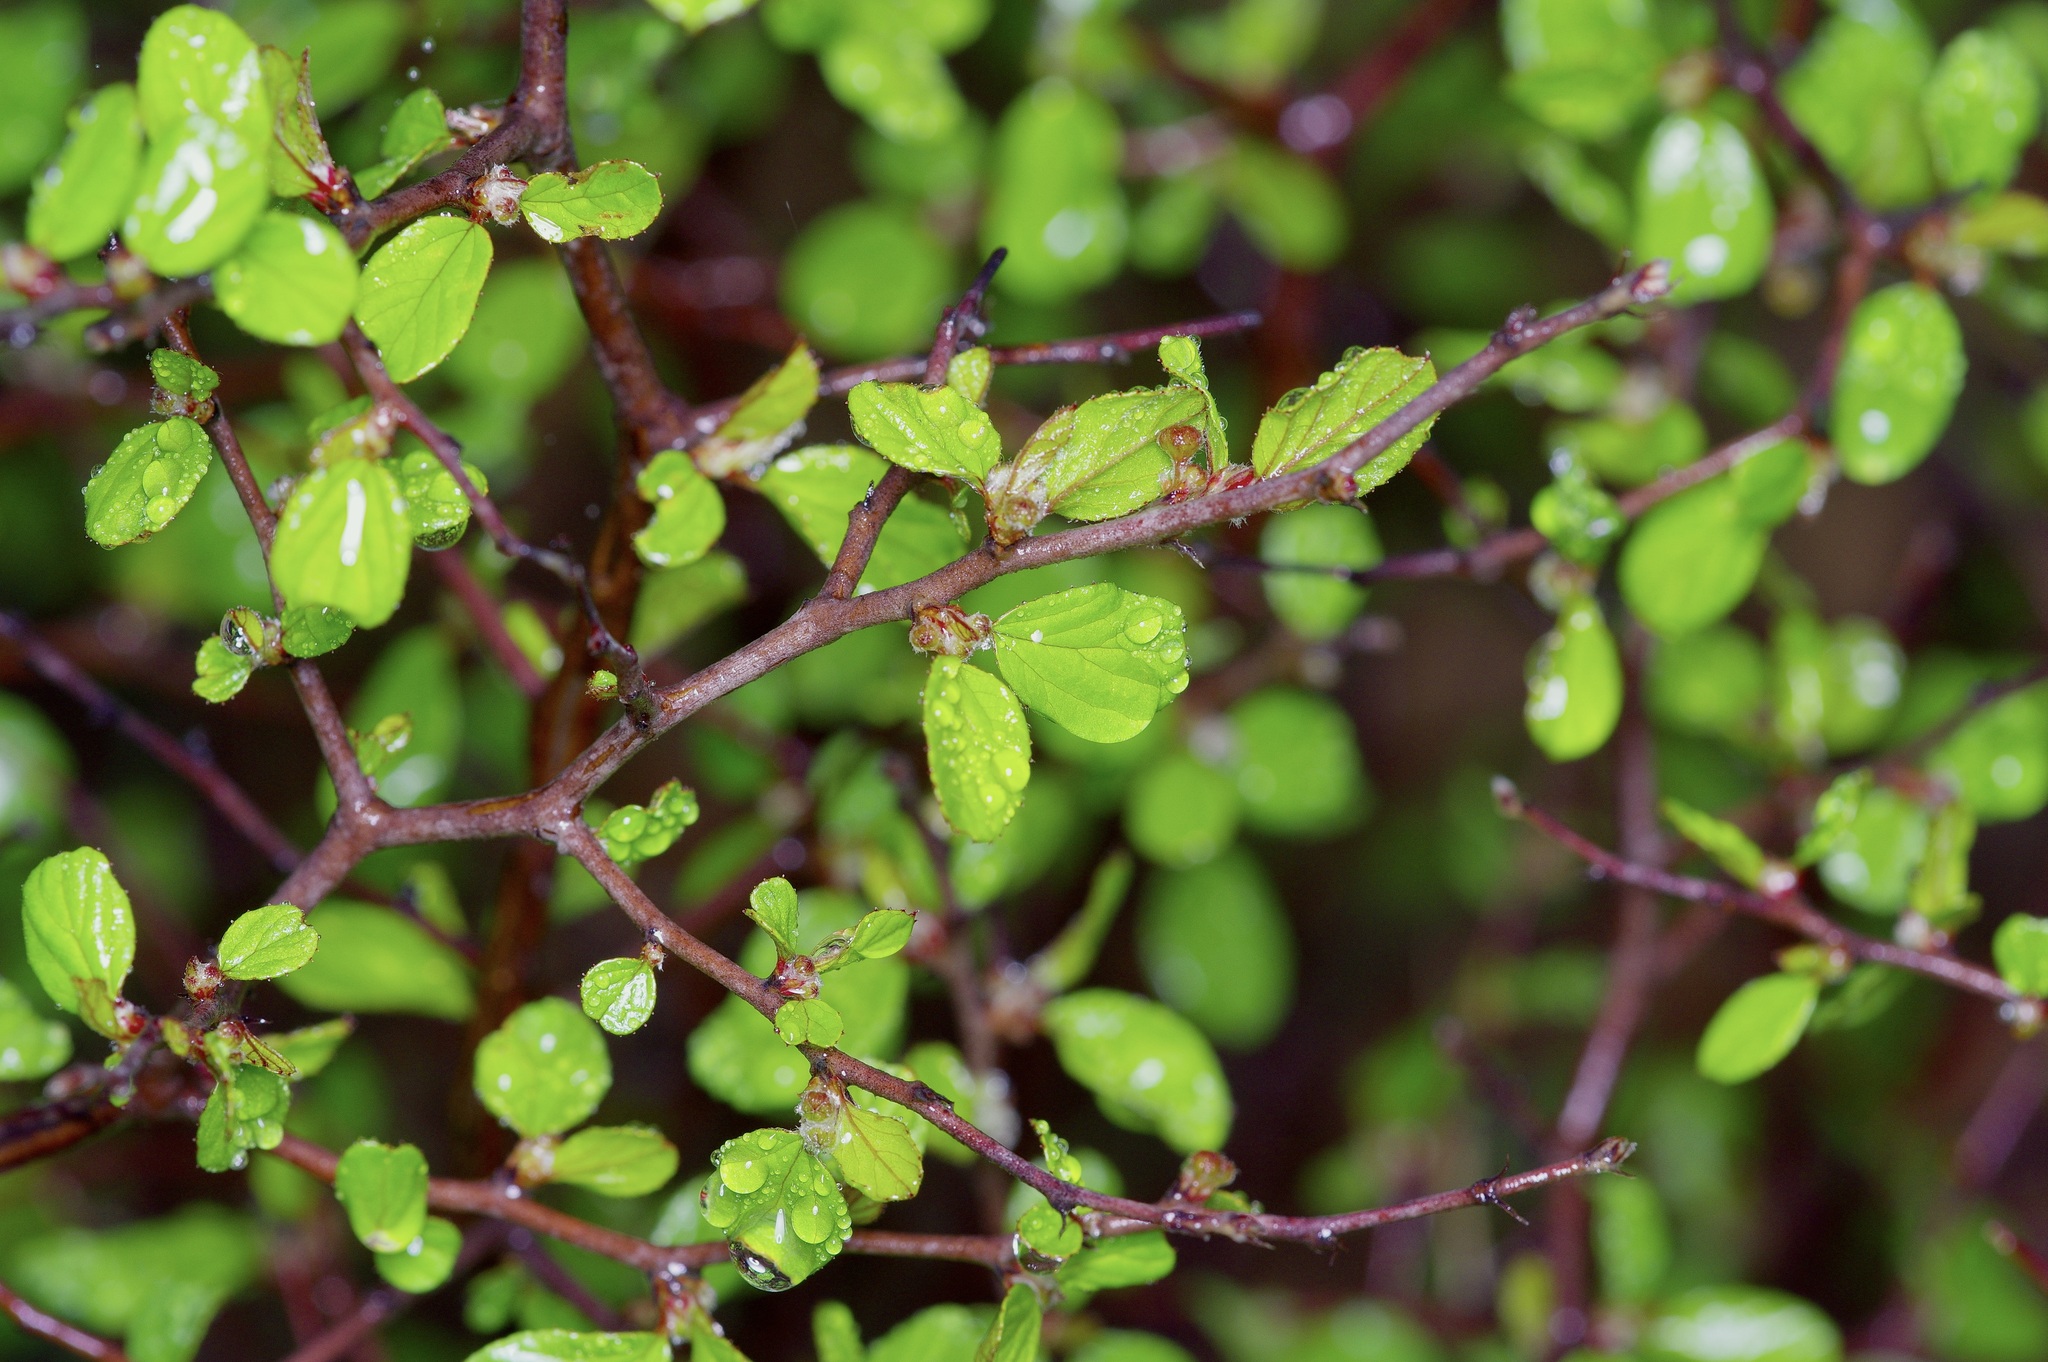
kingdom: Plantae
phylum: Tracheophyta
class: Magnoliopsida
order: Rosales
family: Rhamnaceae
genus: Colubrina
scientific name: Colubrina texensis
